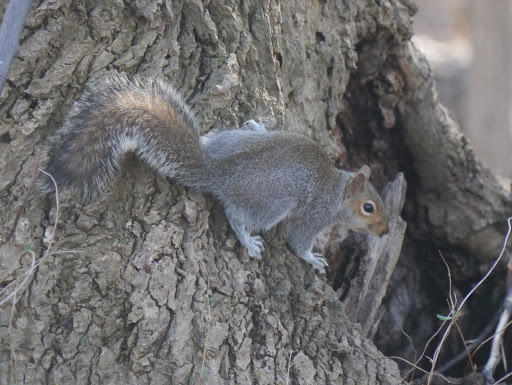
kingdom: Animalia
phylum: Chordata
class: Mammalia
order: Rodentia
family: Sciuridae
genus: Sciurus
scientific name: Sciurus carolinensis
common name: Eastern gray squirrel
